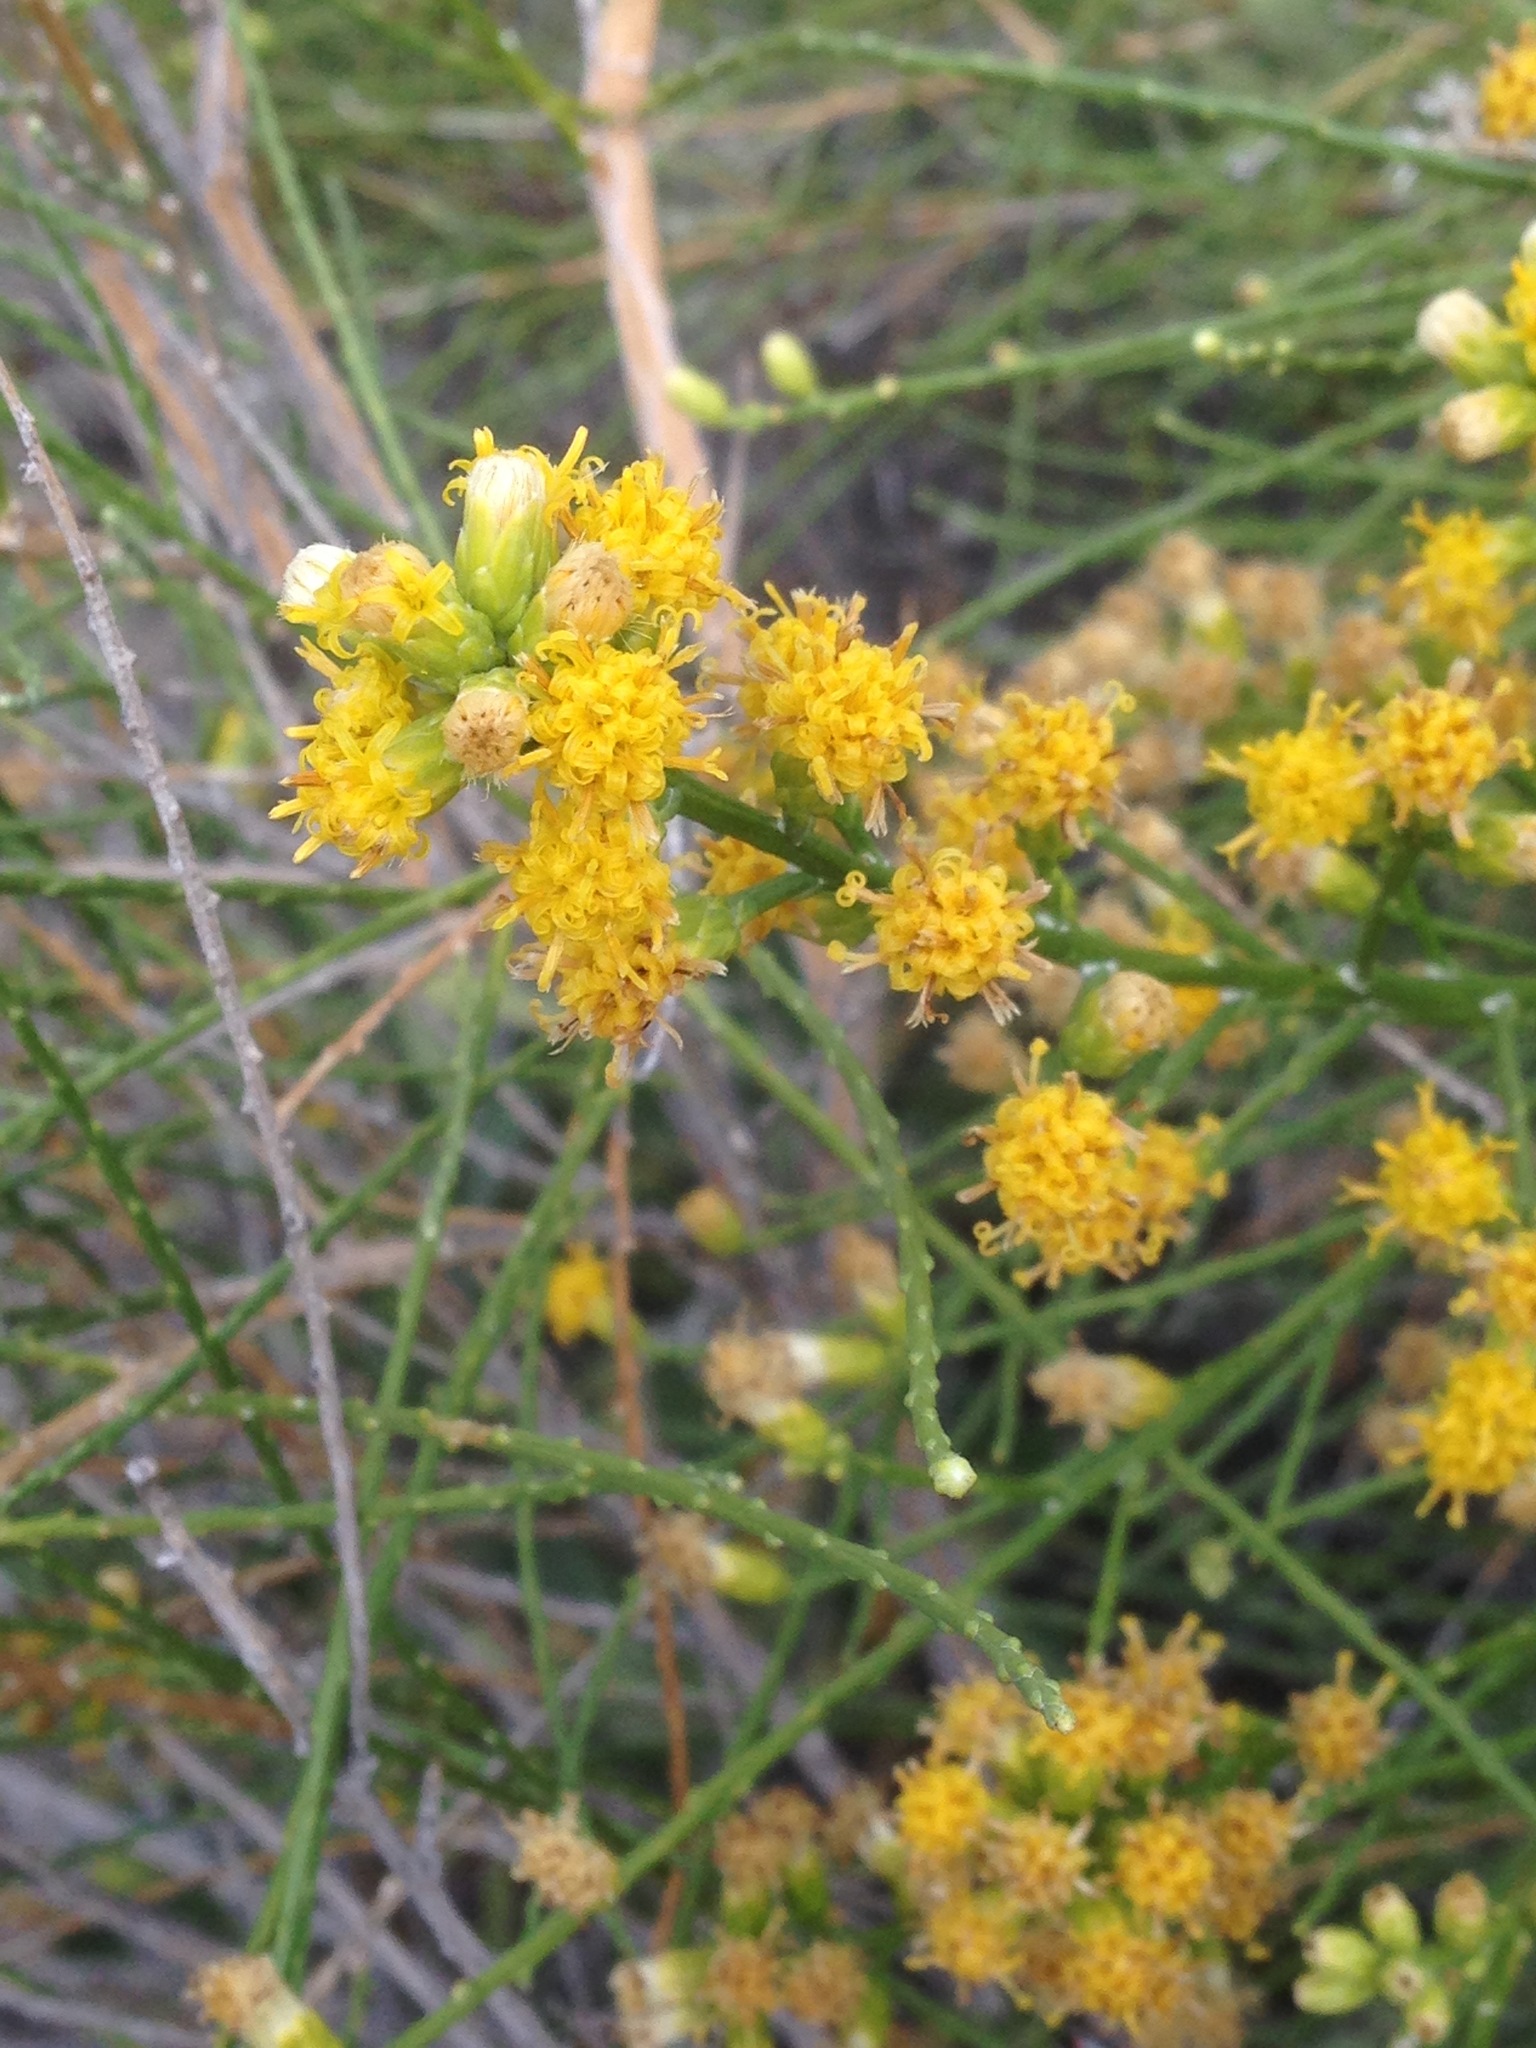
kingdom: Plantae
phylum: Tracheophyta
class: Magnoliopsida
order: Asterales
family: Asteraceae
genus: Lepidospartum
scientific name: Lepidospartum squamatum
